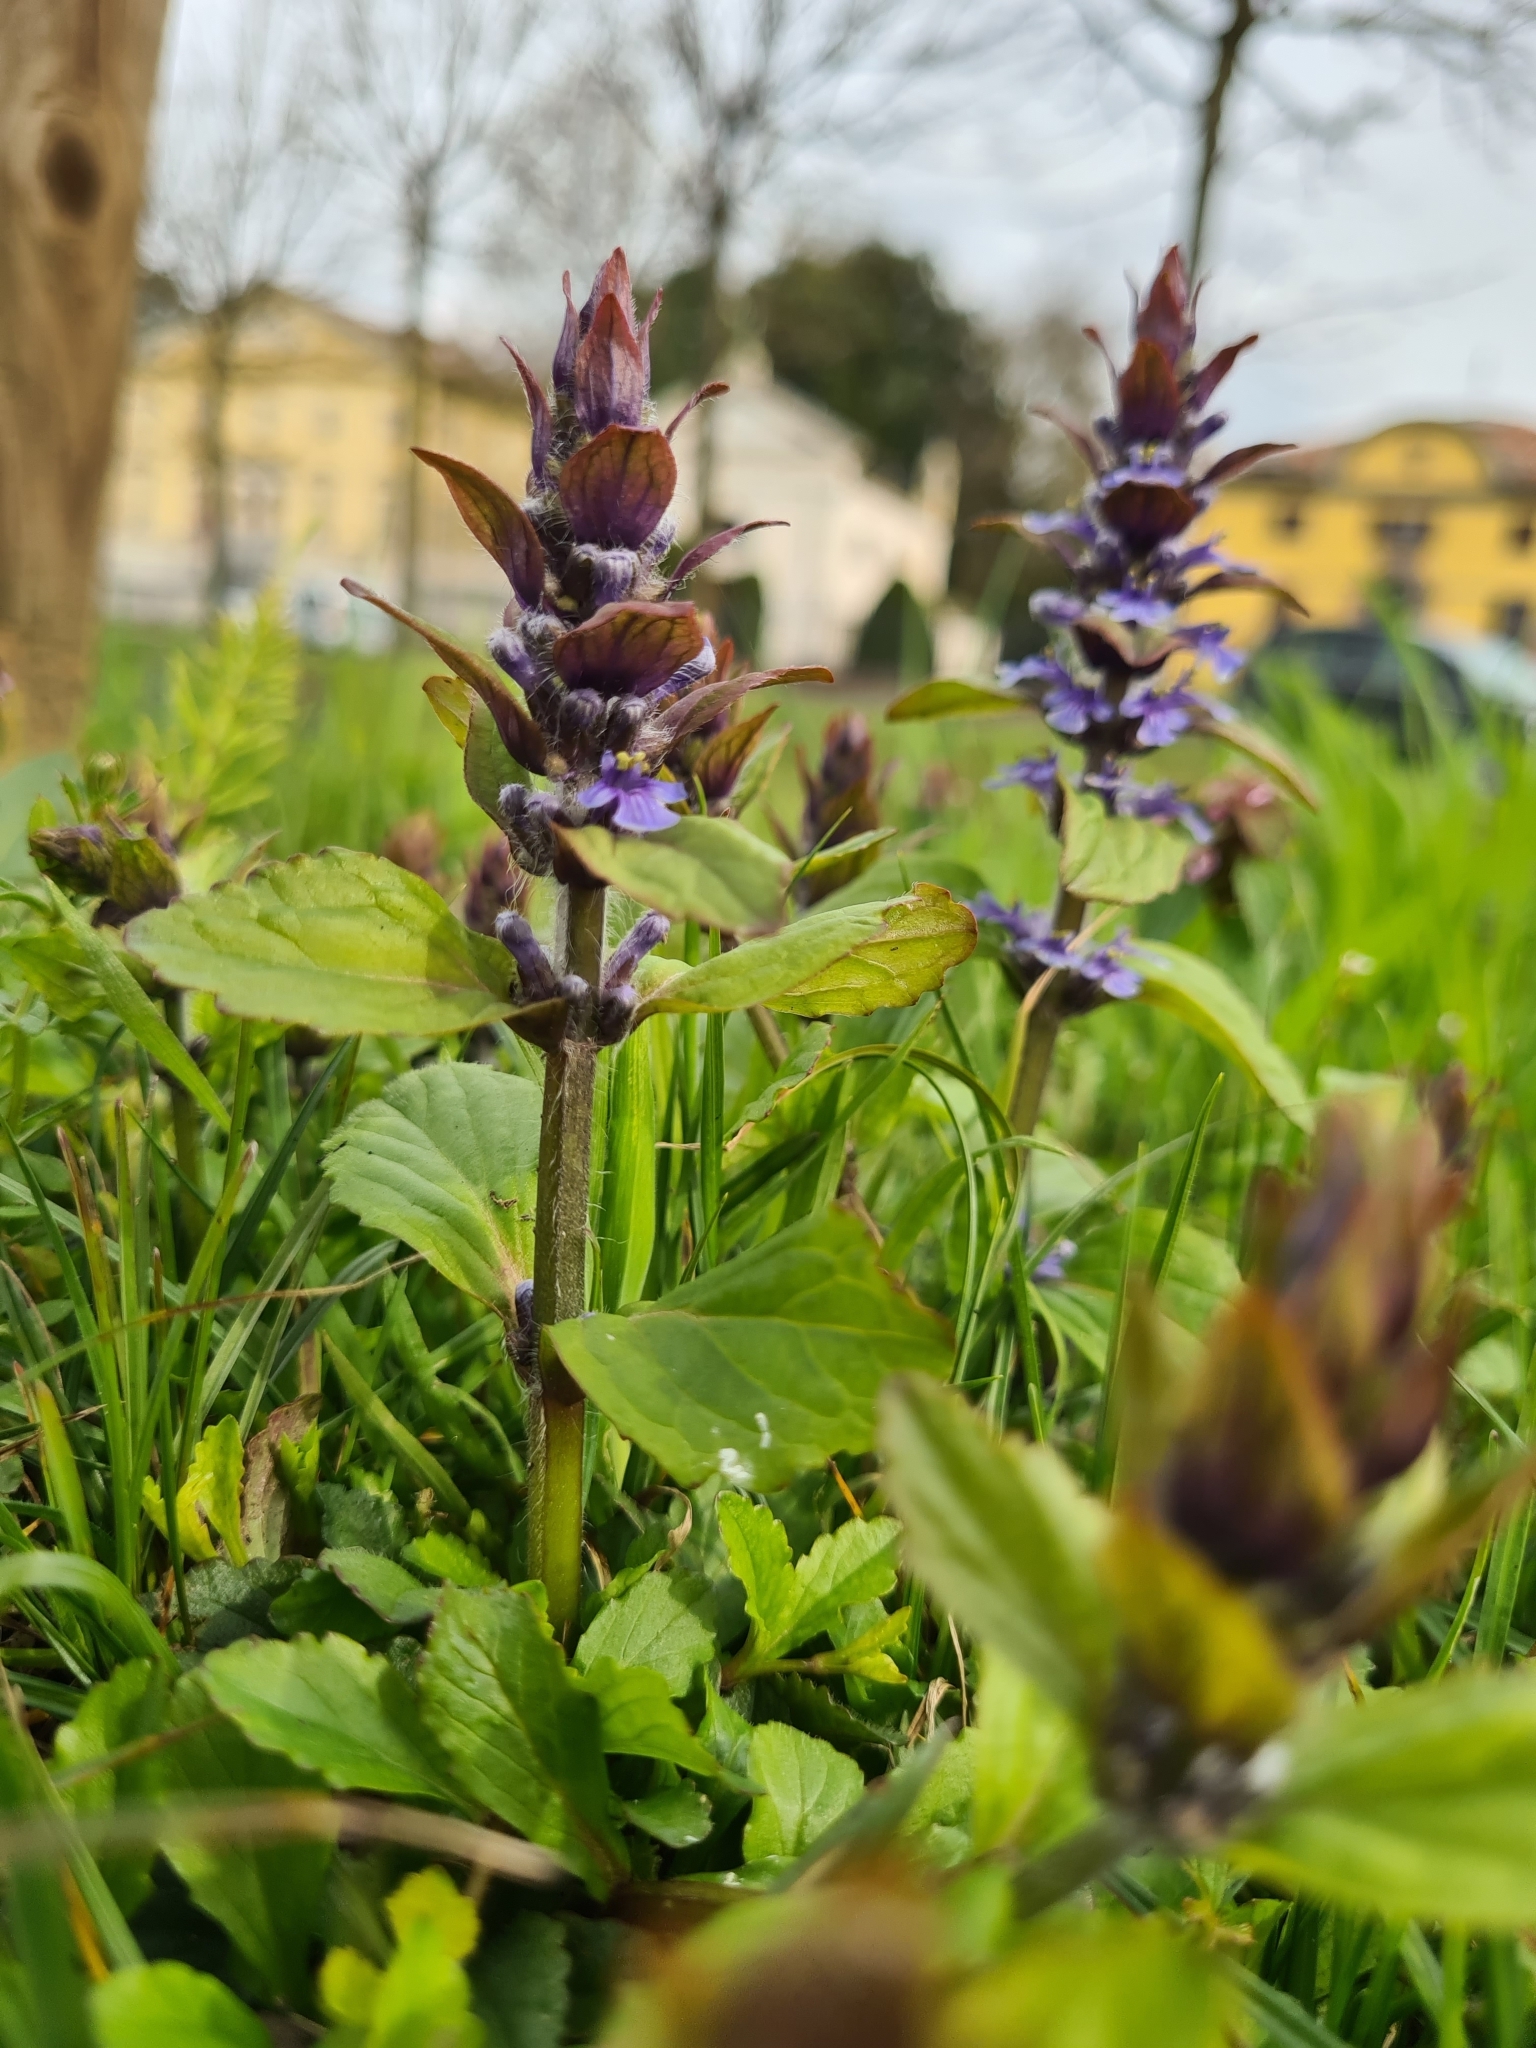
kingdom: Plantae
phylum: Tracheophyta
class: Magnoliopsida
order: Lamiales
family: Lamiaceae
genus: Ajuga
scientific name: Ajuga reptans
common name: Bugle
